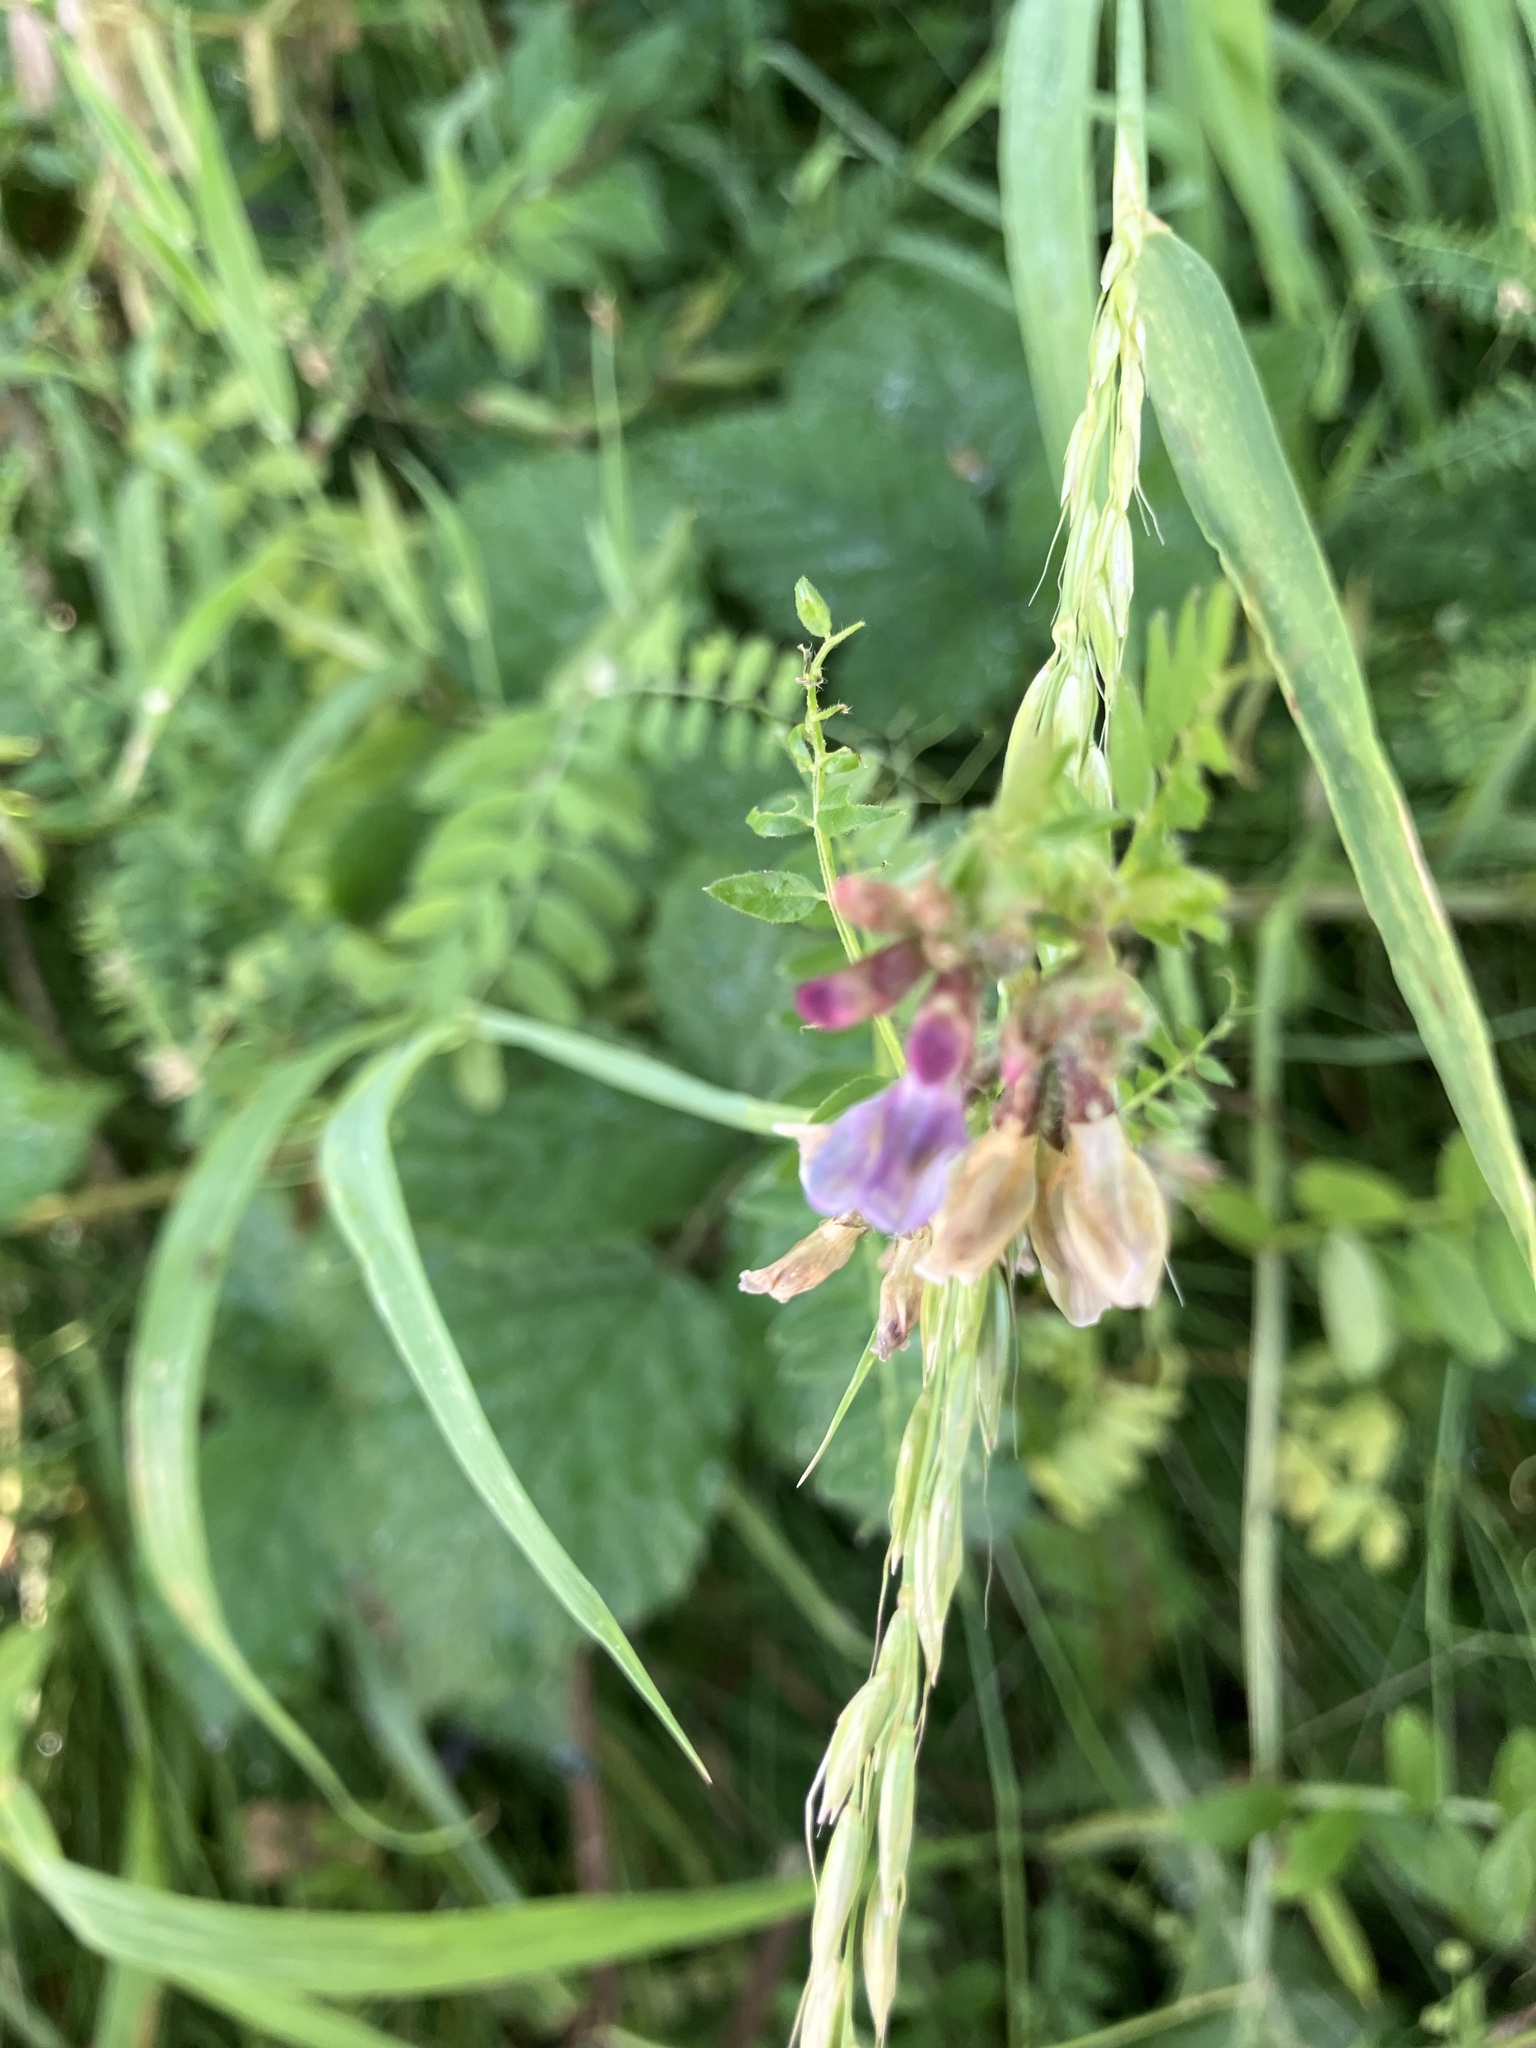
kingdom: Plantae
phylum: Tracheophyta
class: Magnoliopsida
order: Fabales
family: Fabaceae
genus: Vicia
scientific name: Vicia sepium
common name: Bush vetch
